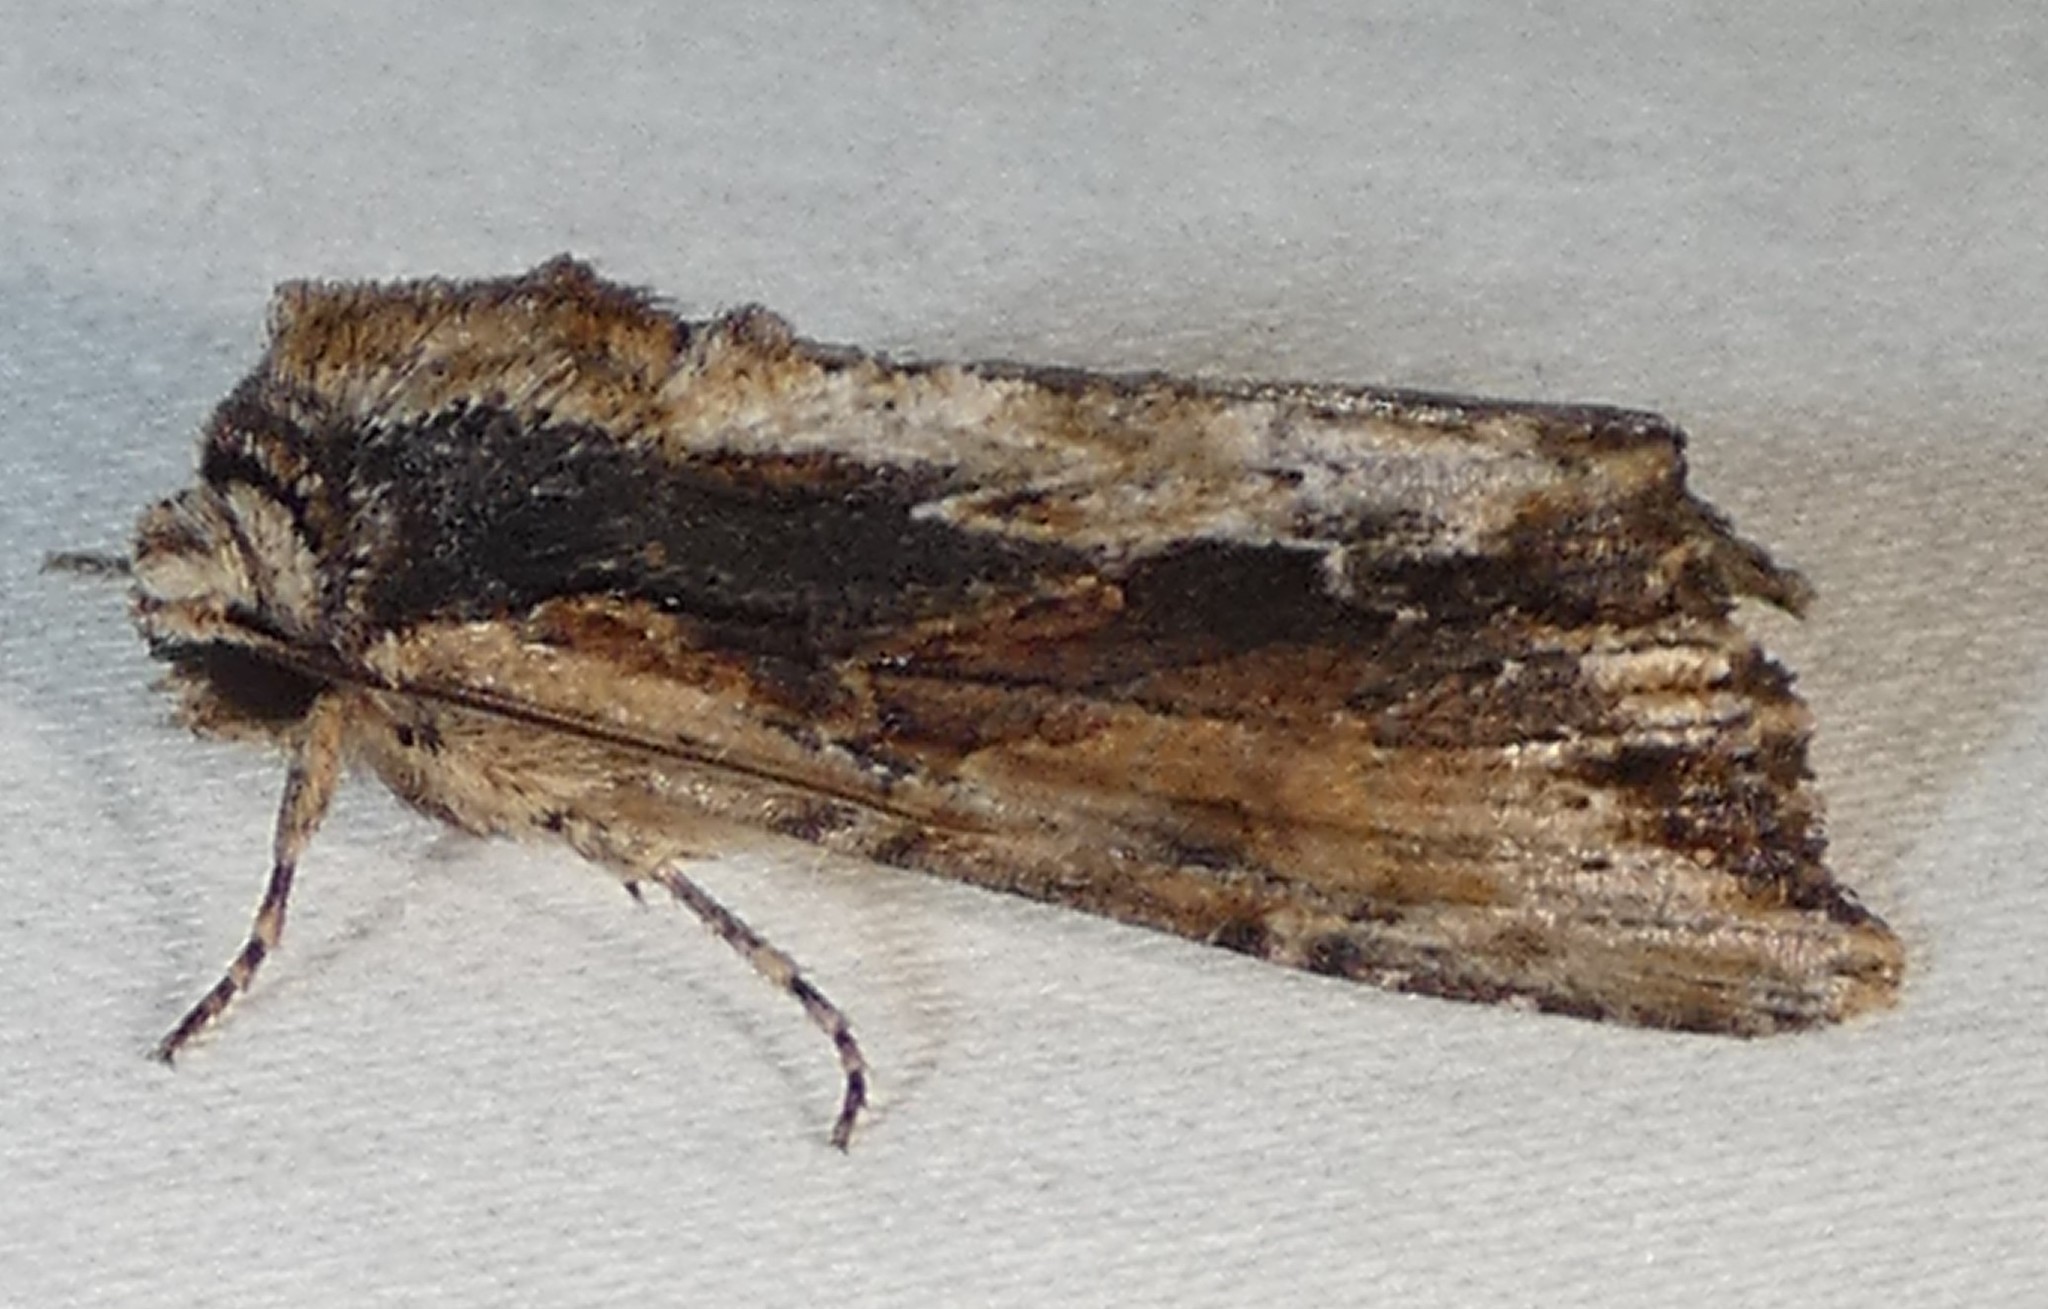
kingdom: Animalia
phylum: Arthropoda
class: Insecta
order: Lepidoptera
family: Noctuidae
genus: Achatia
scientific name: Achatia mucens
